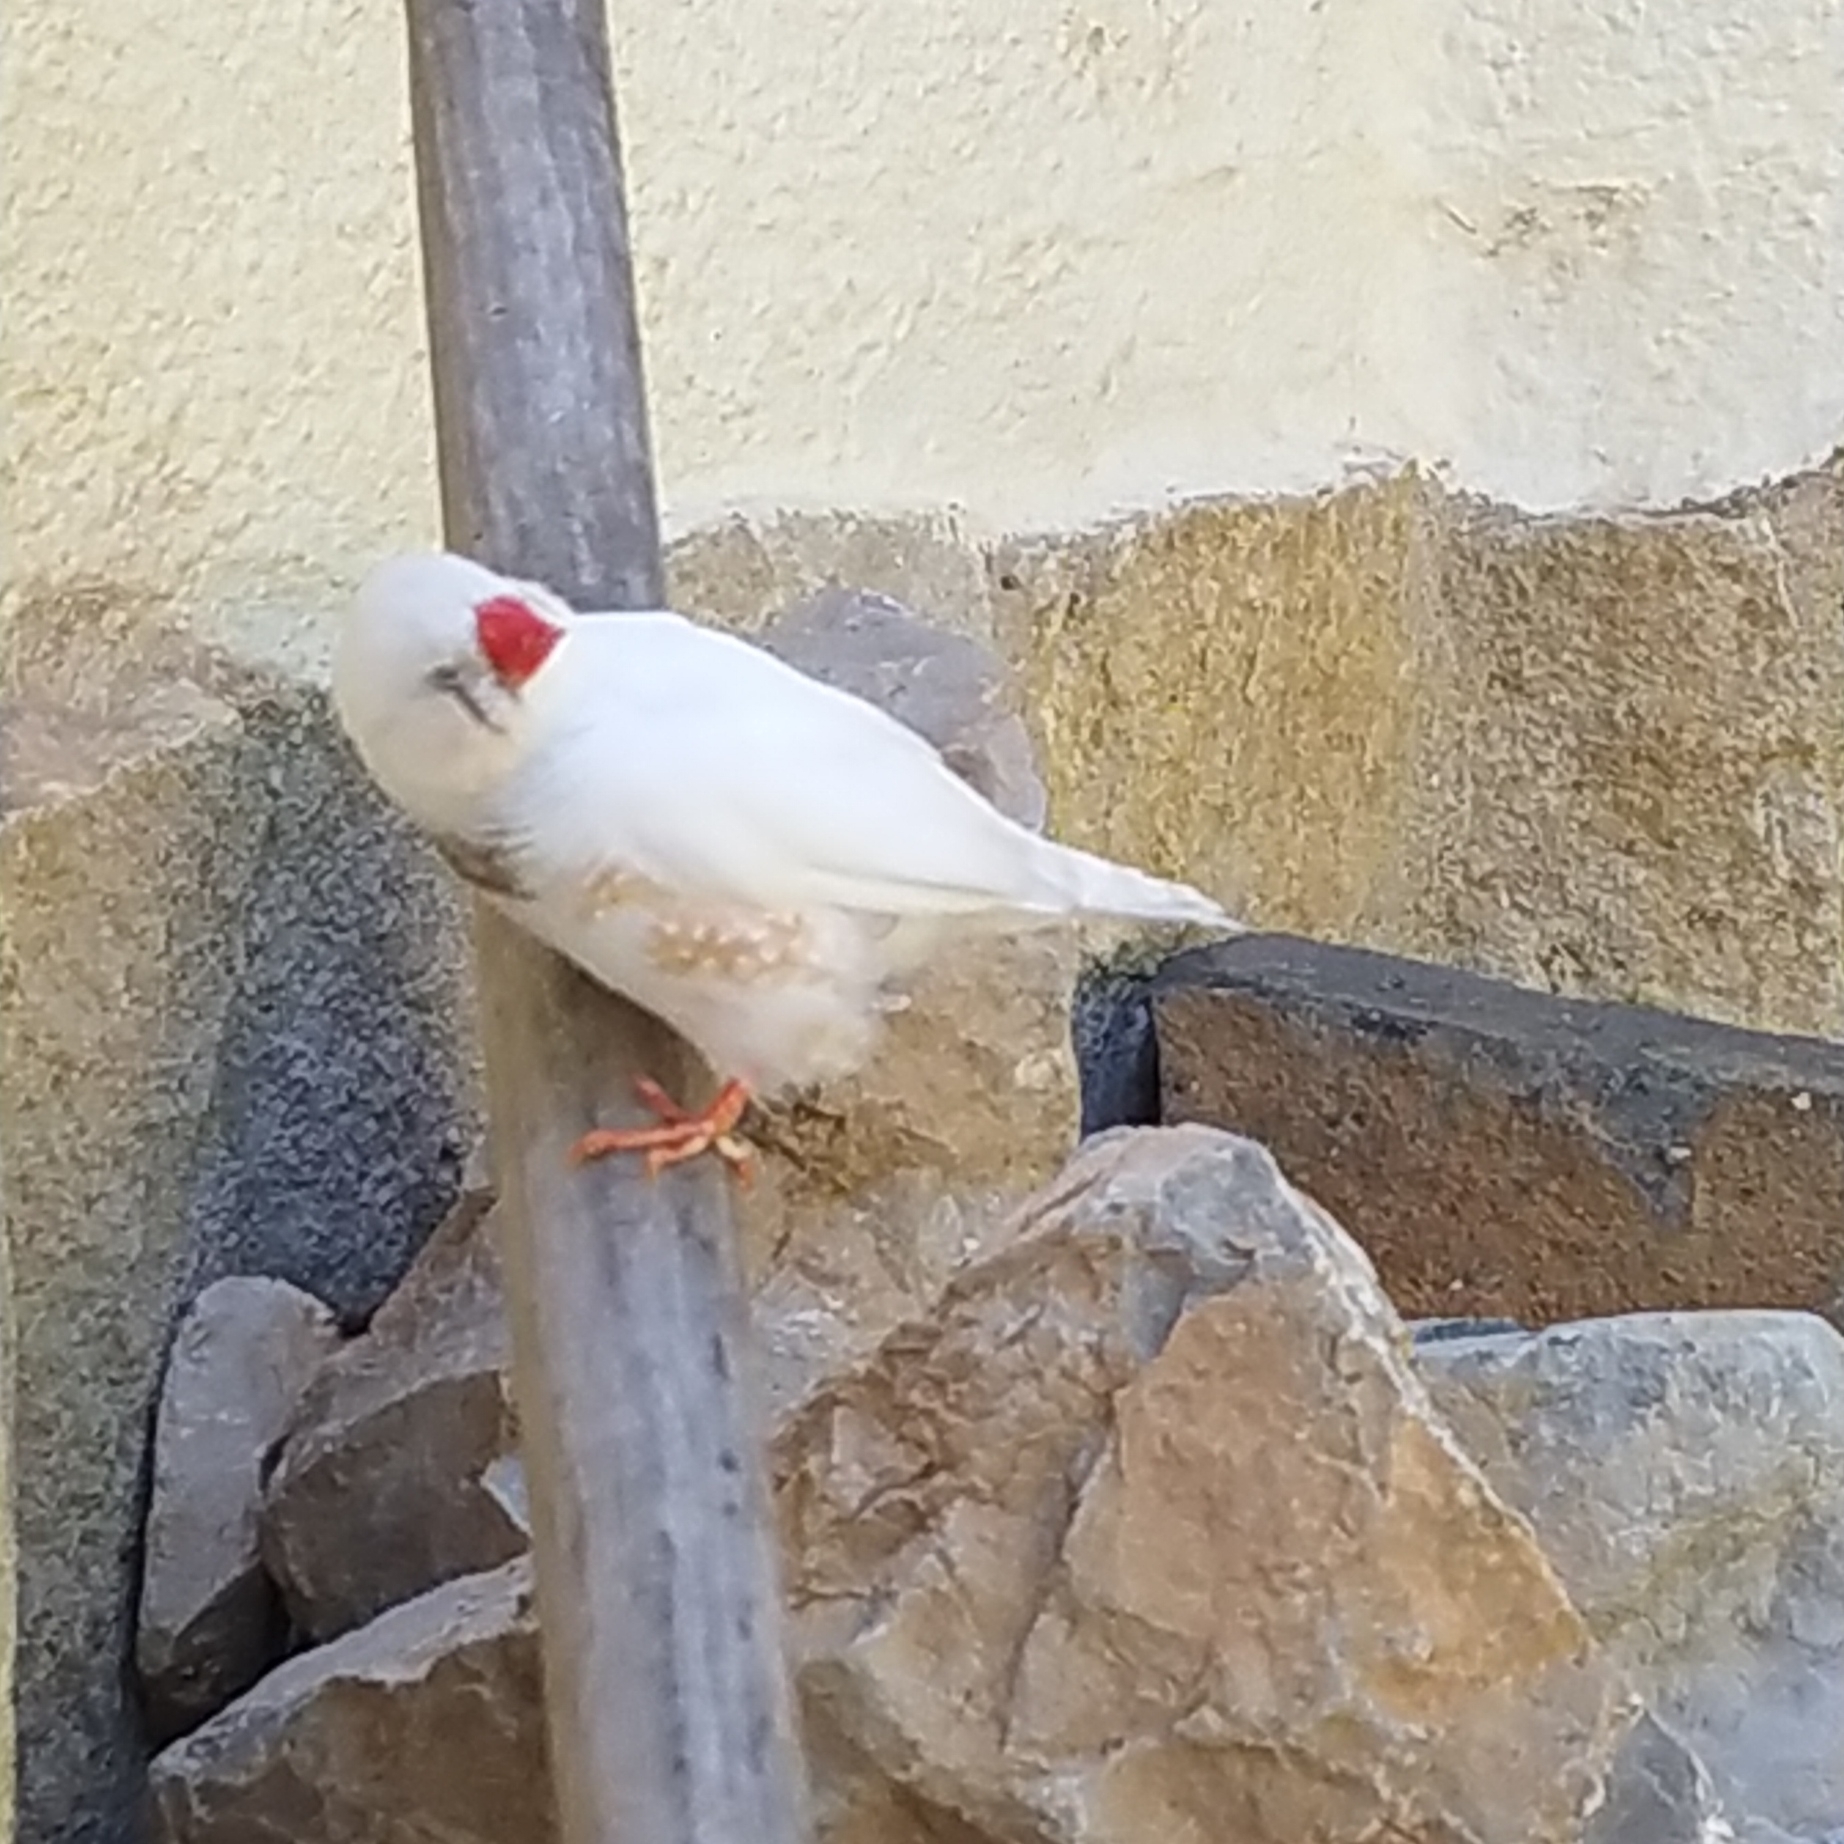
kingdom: Animalia
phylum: Chordata
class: Aves
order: Passeriformes
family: Estrildidae
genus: Taeniopygia
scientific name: Taeniopygia guttata
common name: Zebra finch
